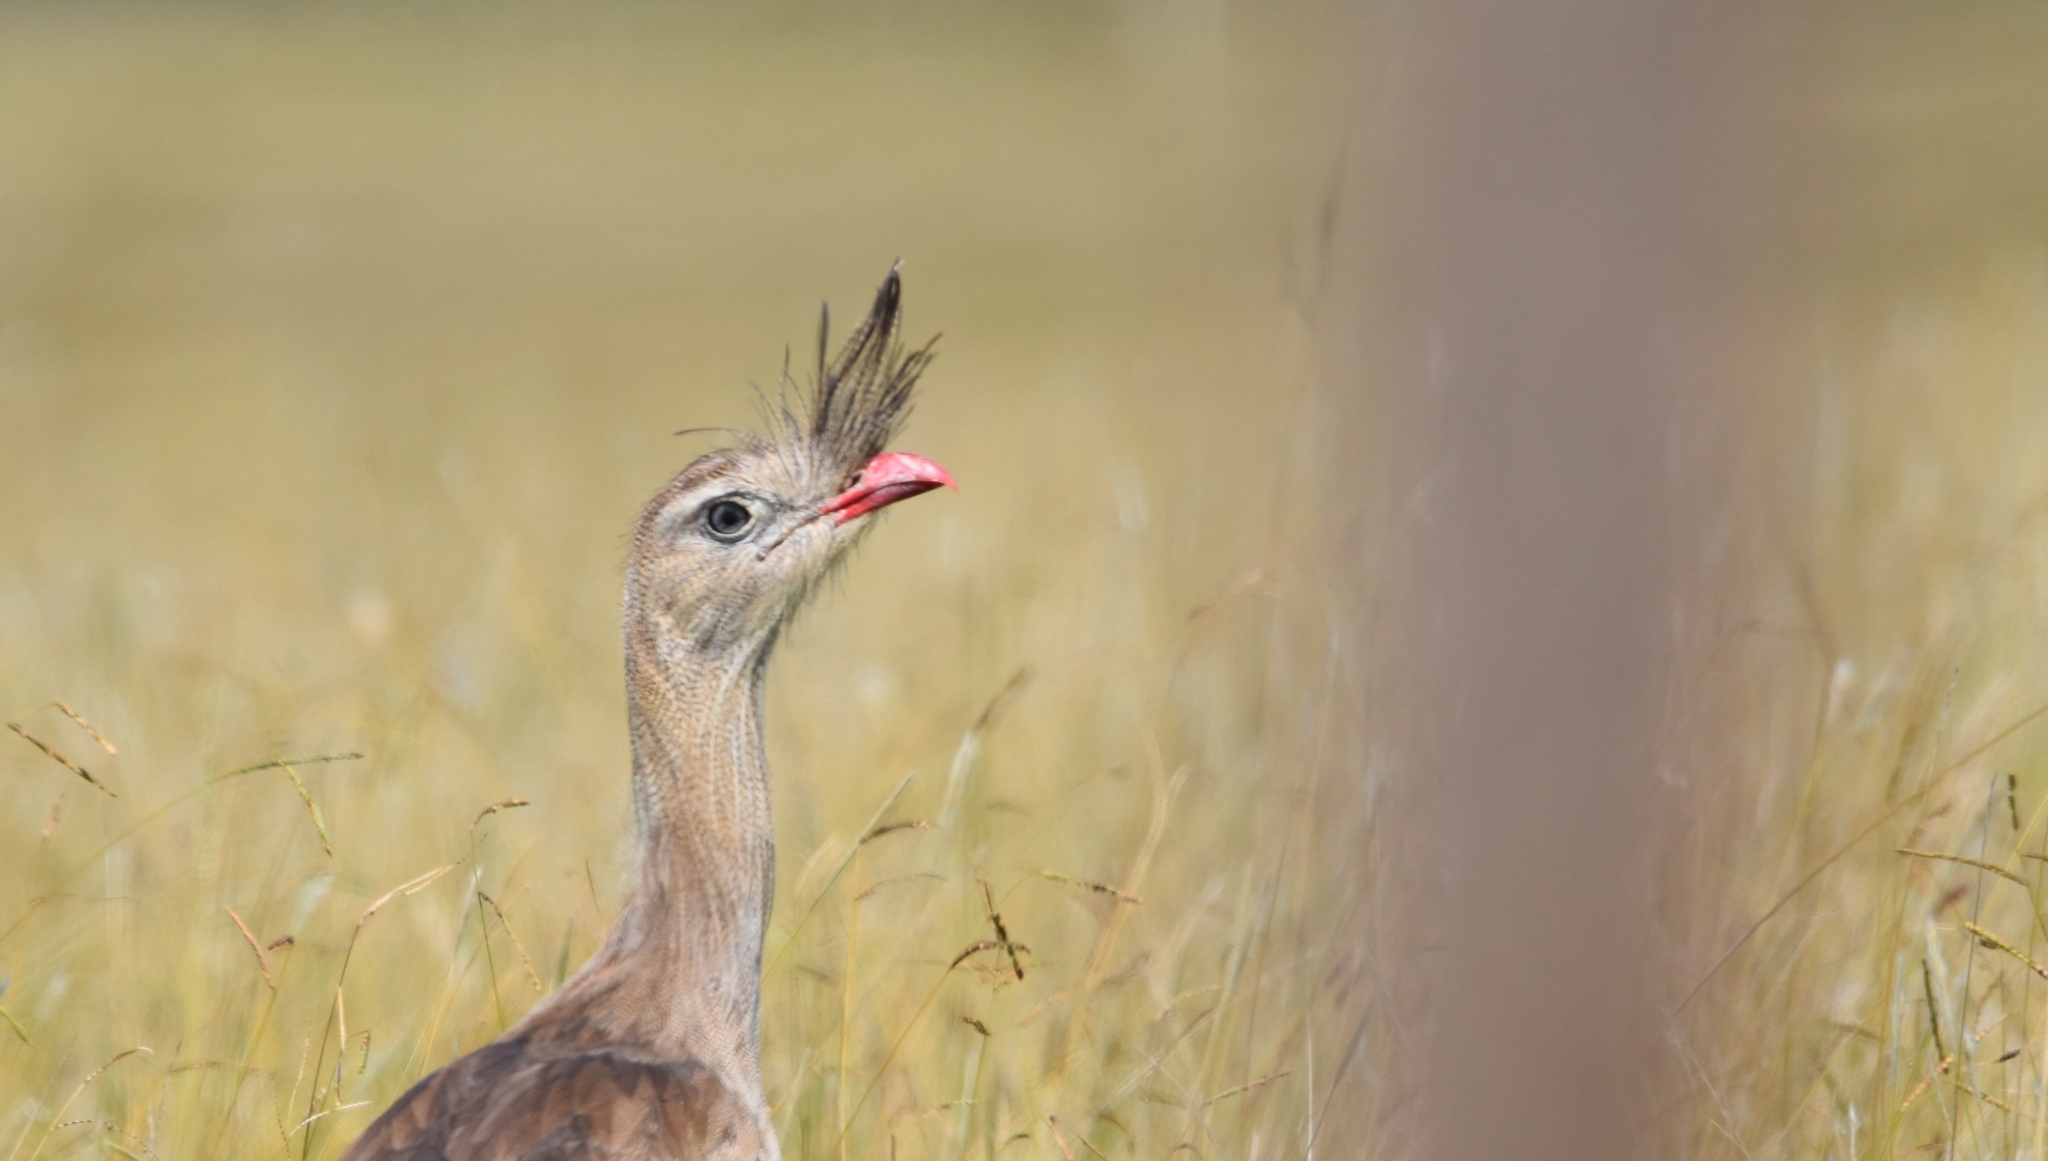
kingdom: Animalia
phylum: Chordata
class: Aves
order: Cariamiformes
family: Cariamidae
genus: Cariama
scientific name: Cariama cristata
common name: Red-legged seriema
